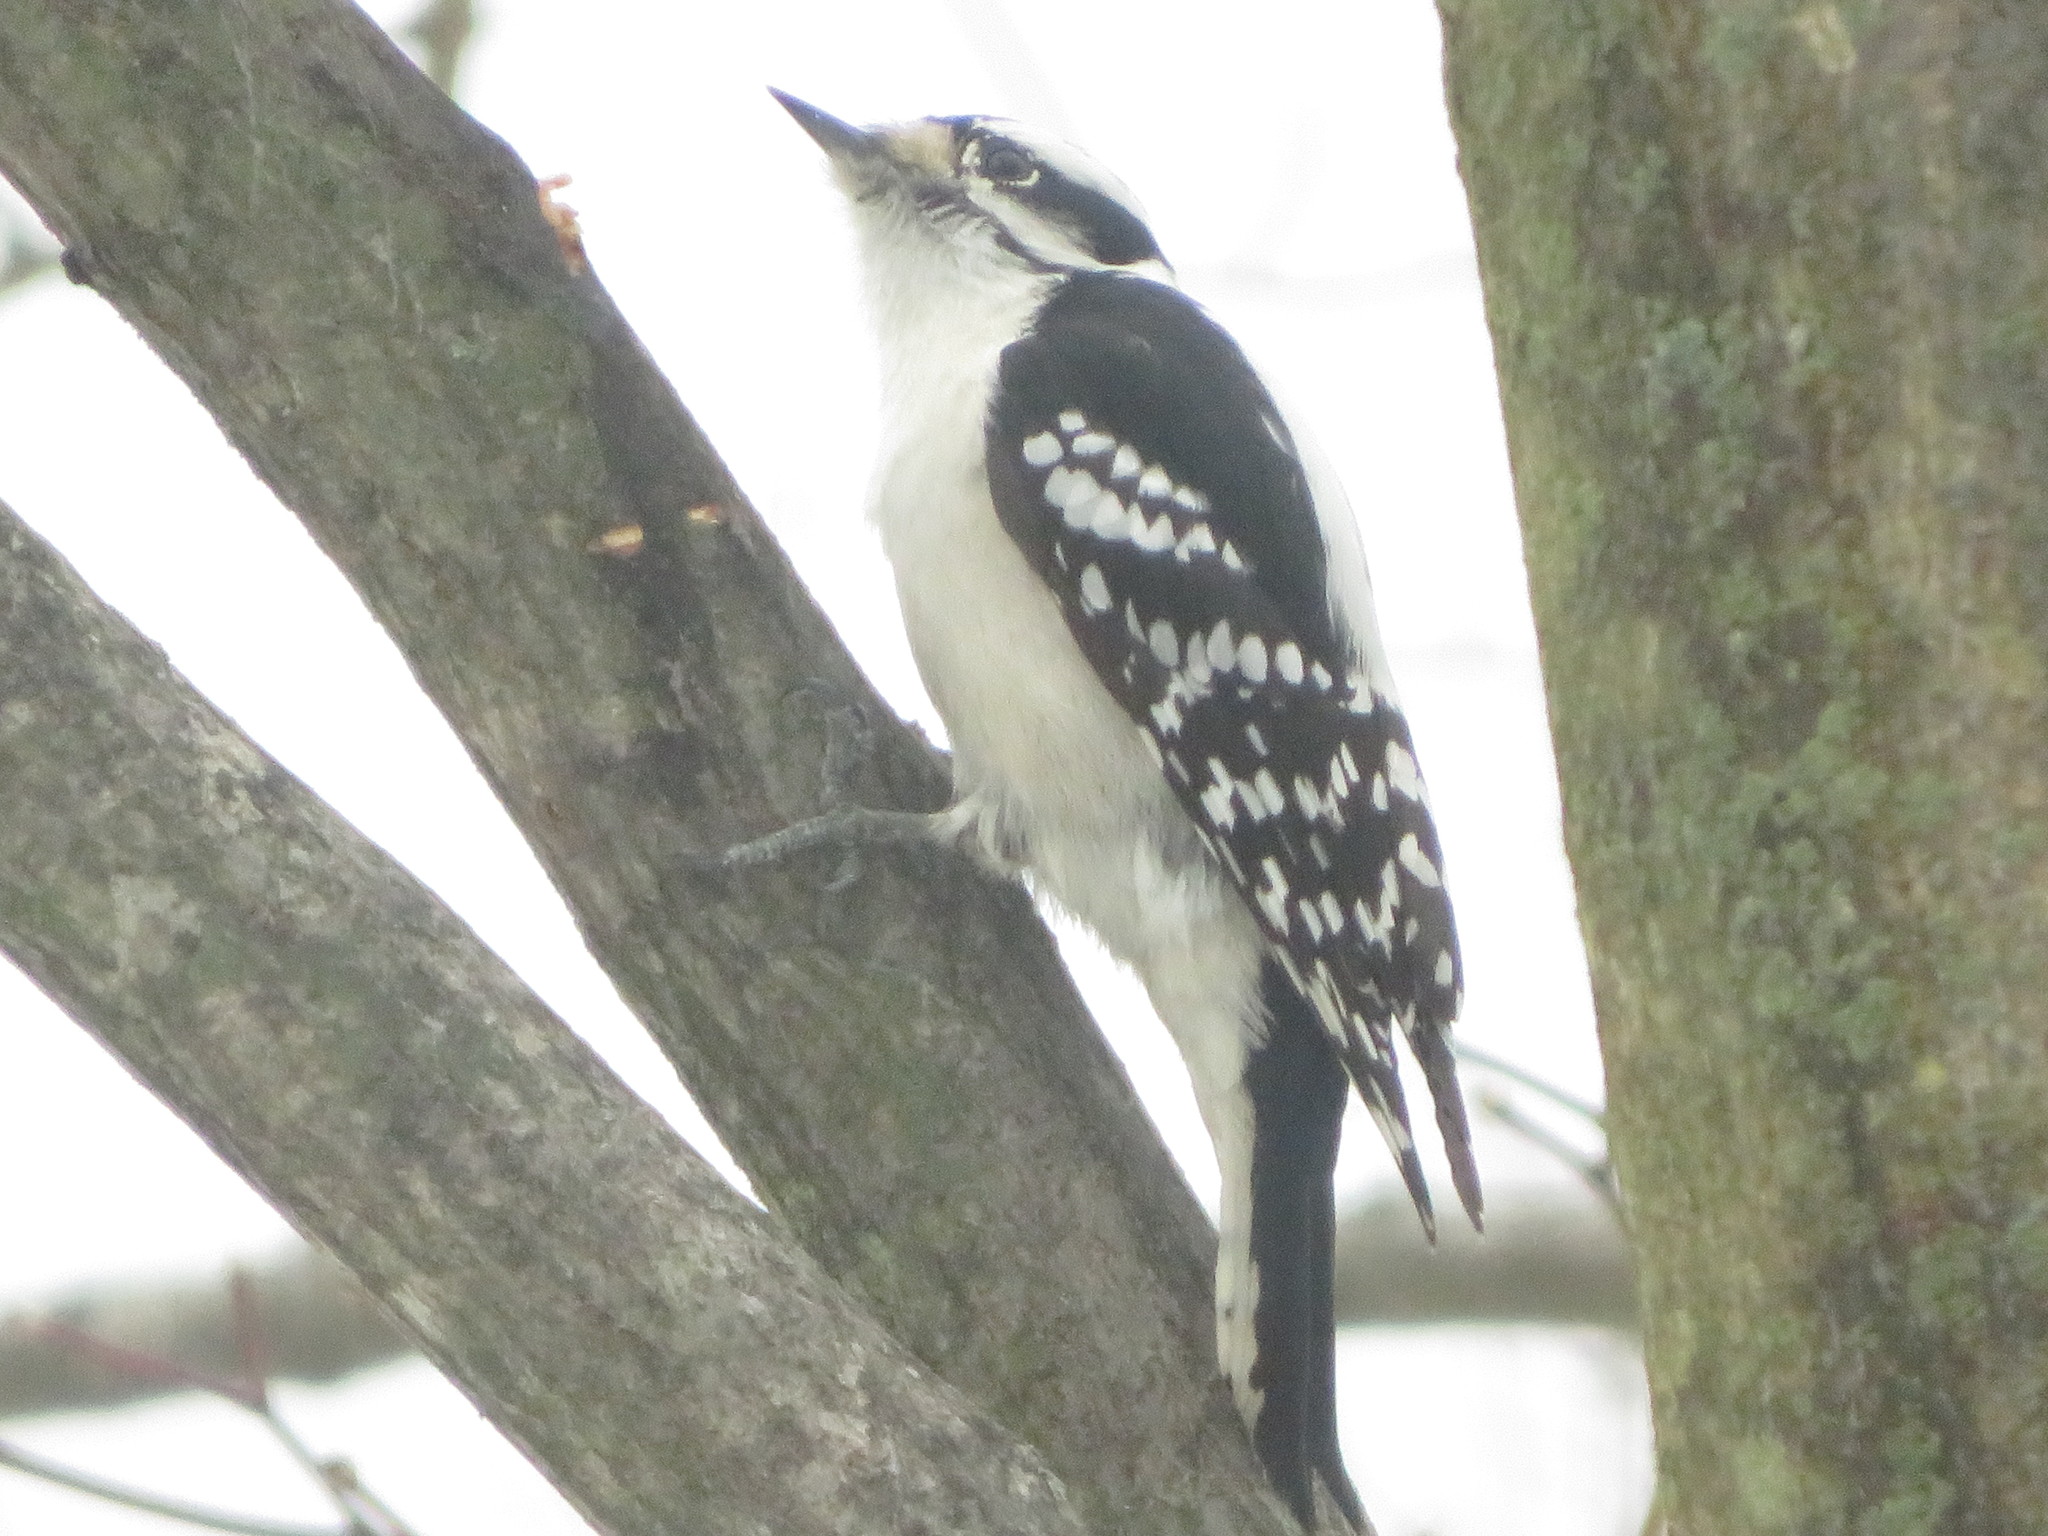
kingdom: Animalia
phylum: Chordata
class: Aves
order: Piciformes
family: Picidae
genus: Dryobates
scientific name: Dryobates pubescens
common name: Downy woodpecker
